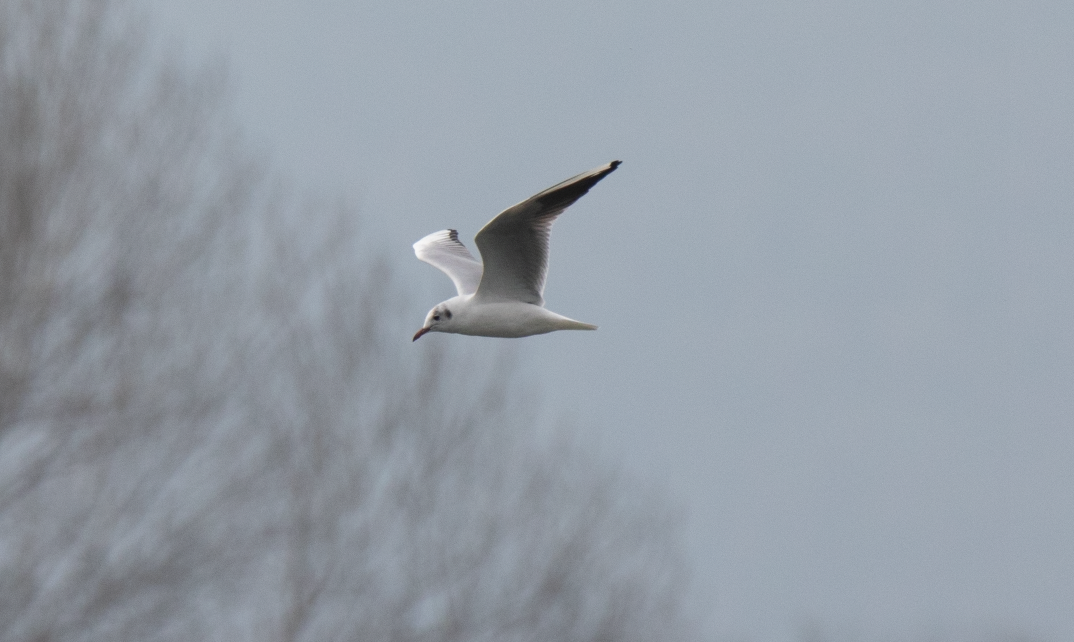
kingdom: Animalia
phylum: Chordata
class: Aves
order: Charadriiformes
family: Laridae
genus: Chroicocephalus
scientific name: Chroicocephalus ridibundus
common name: Black-headed gull
